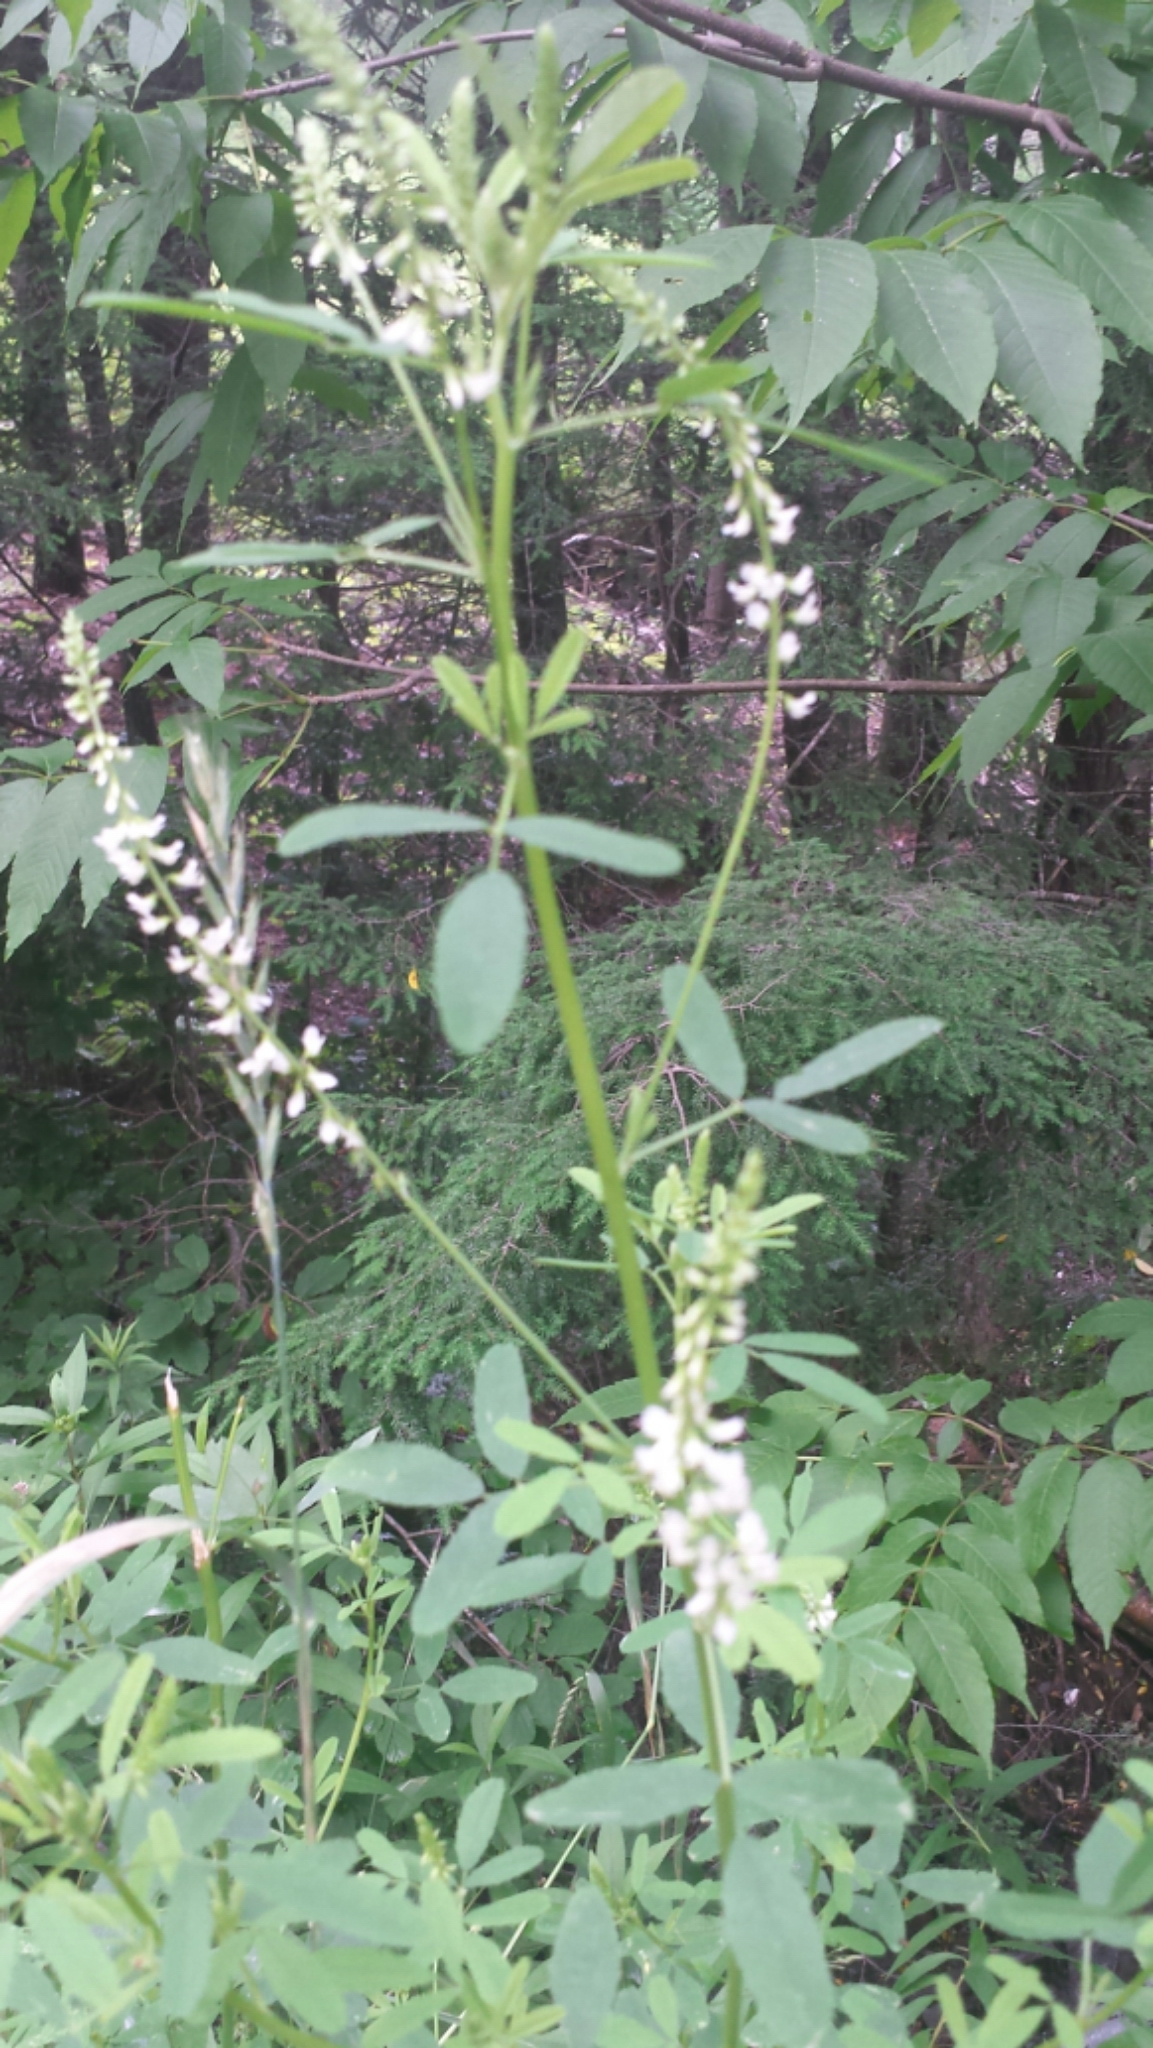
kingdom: Plantae
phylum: Tracheophyta
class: Magnoliopsida
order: Fabales
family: Fabaceae
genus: Melilotus
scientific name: Melilotus albus
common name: White melilot
